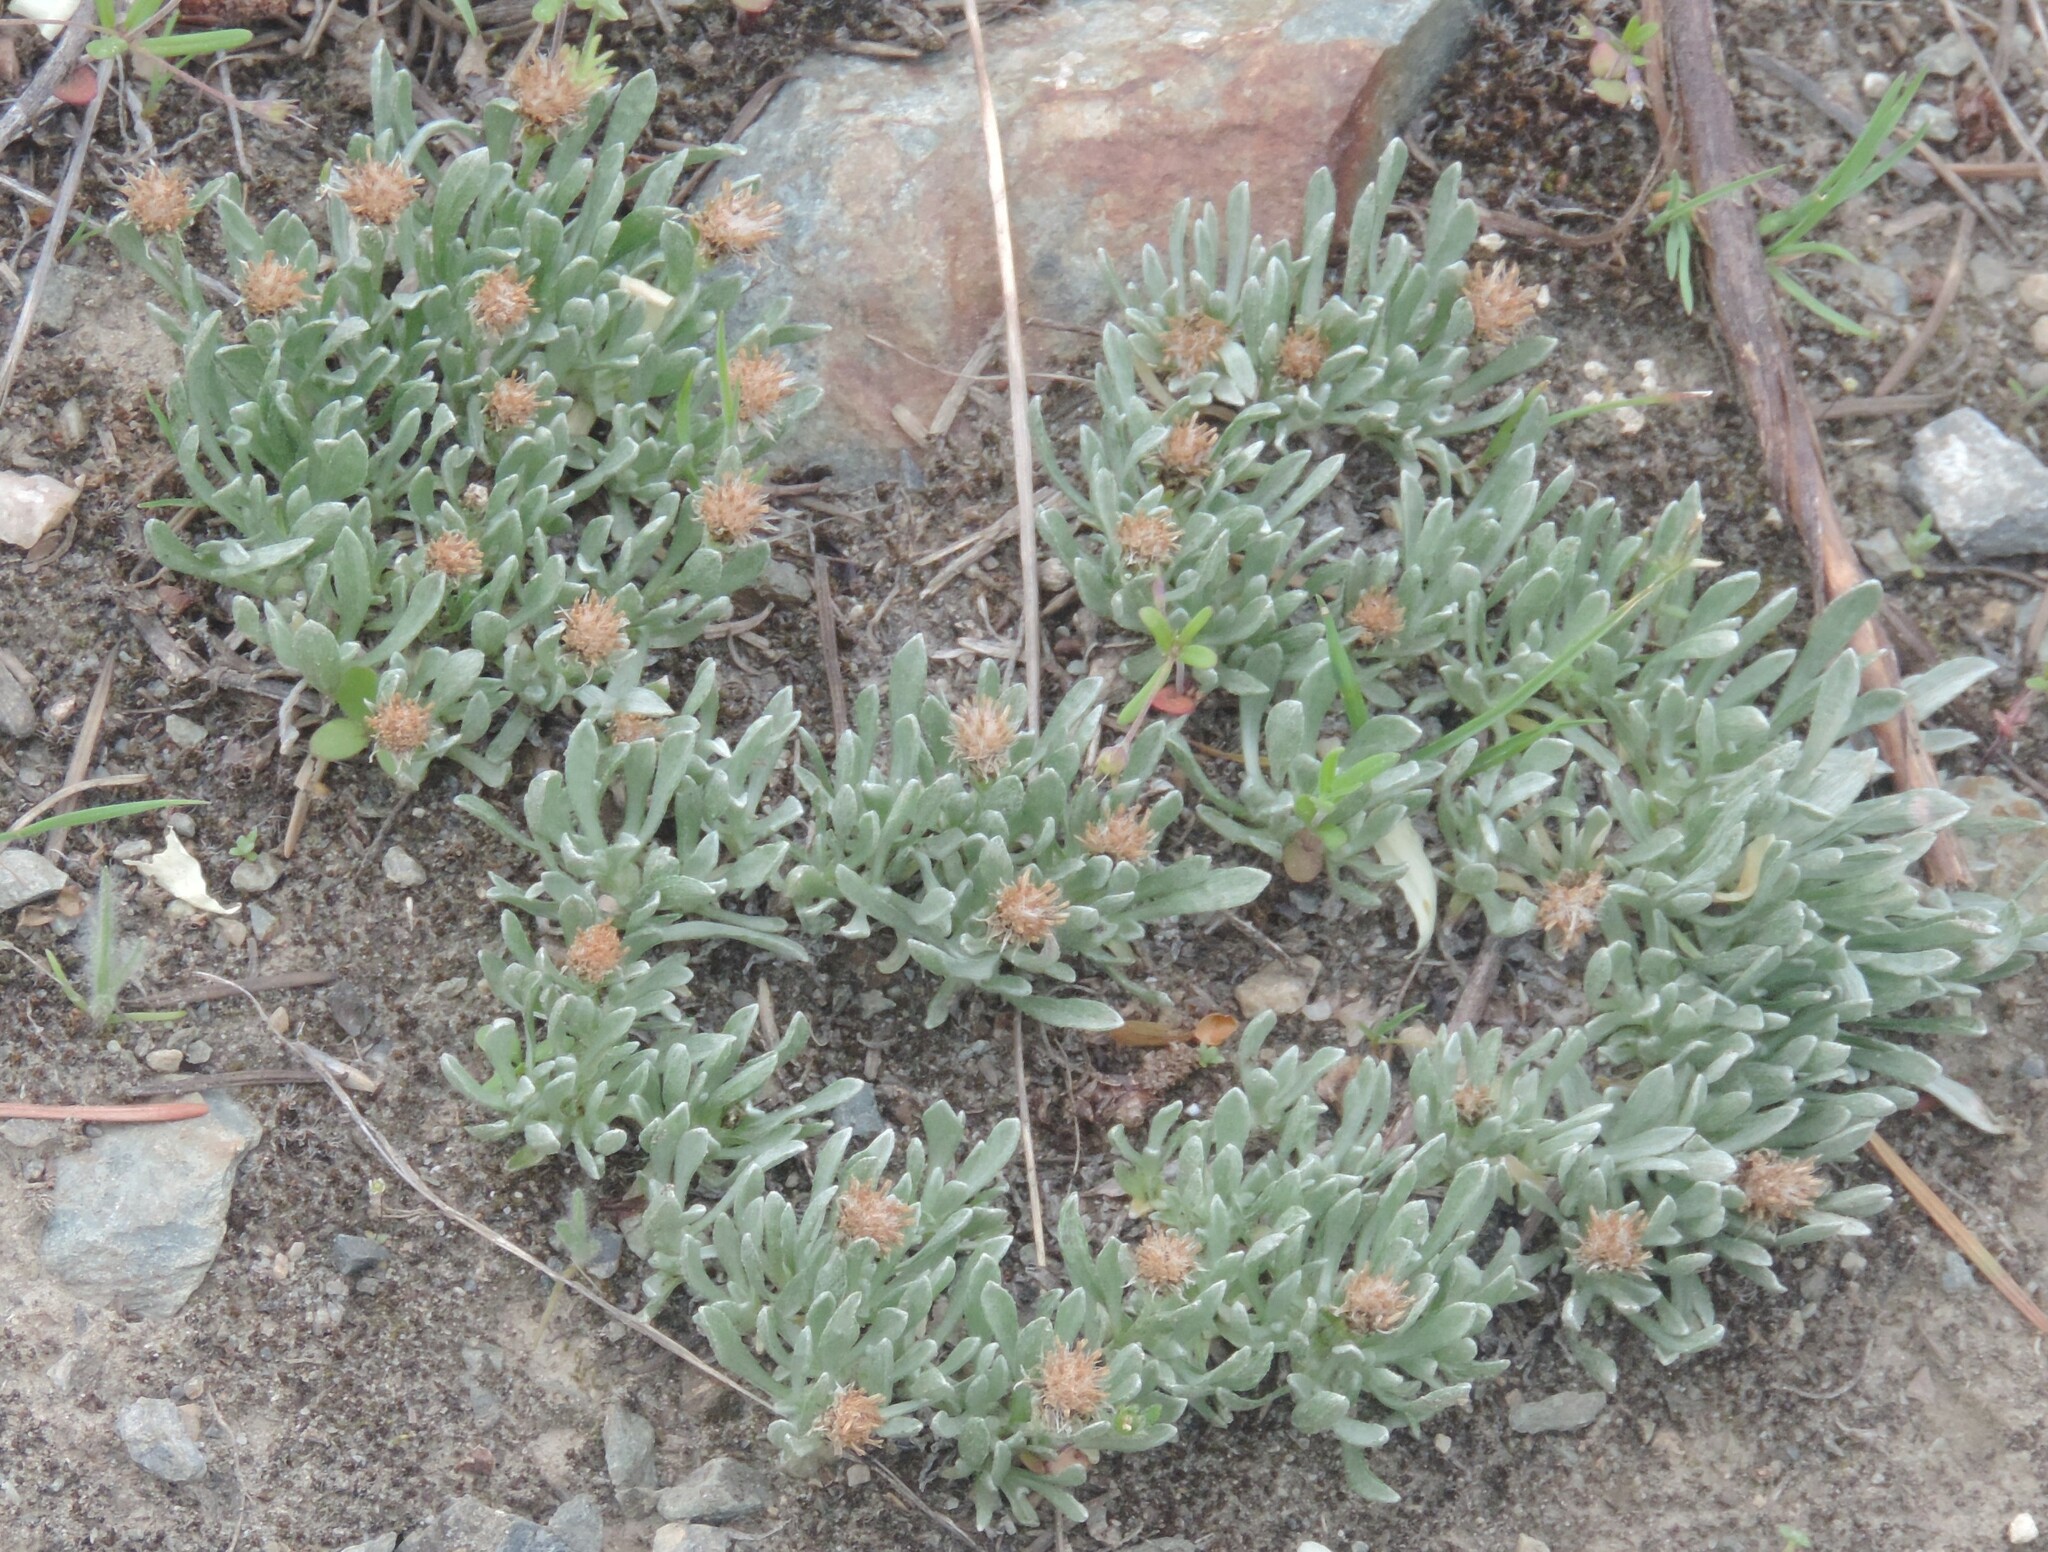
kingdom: Plantae
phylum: Tracheophyta
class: Magnoliopsida
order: Asterales
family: Asteraceae
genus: Antennaria
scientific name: Antennaria dimorpha
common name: Cushion pussytoes
